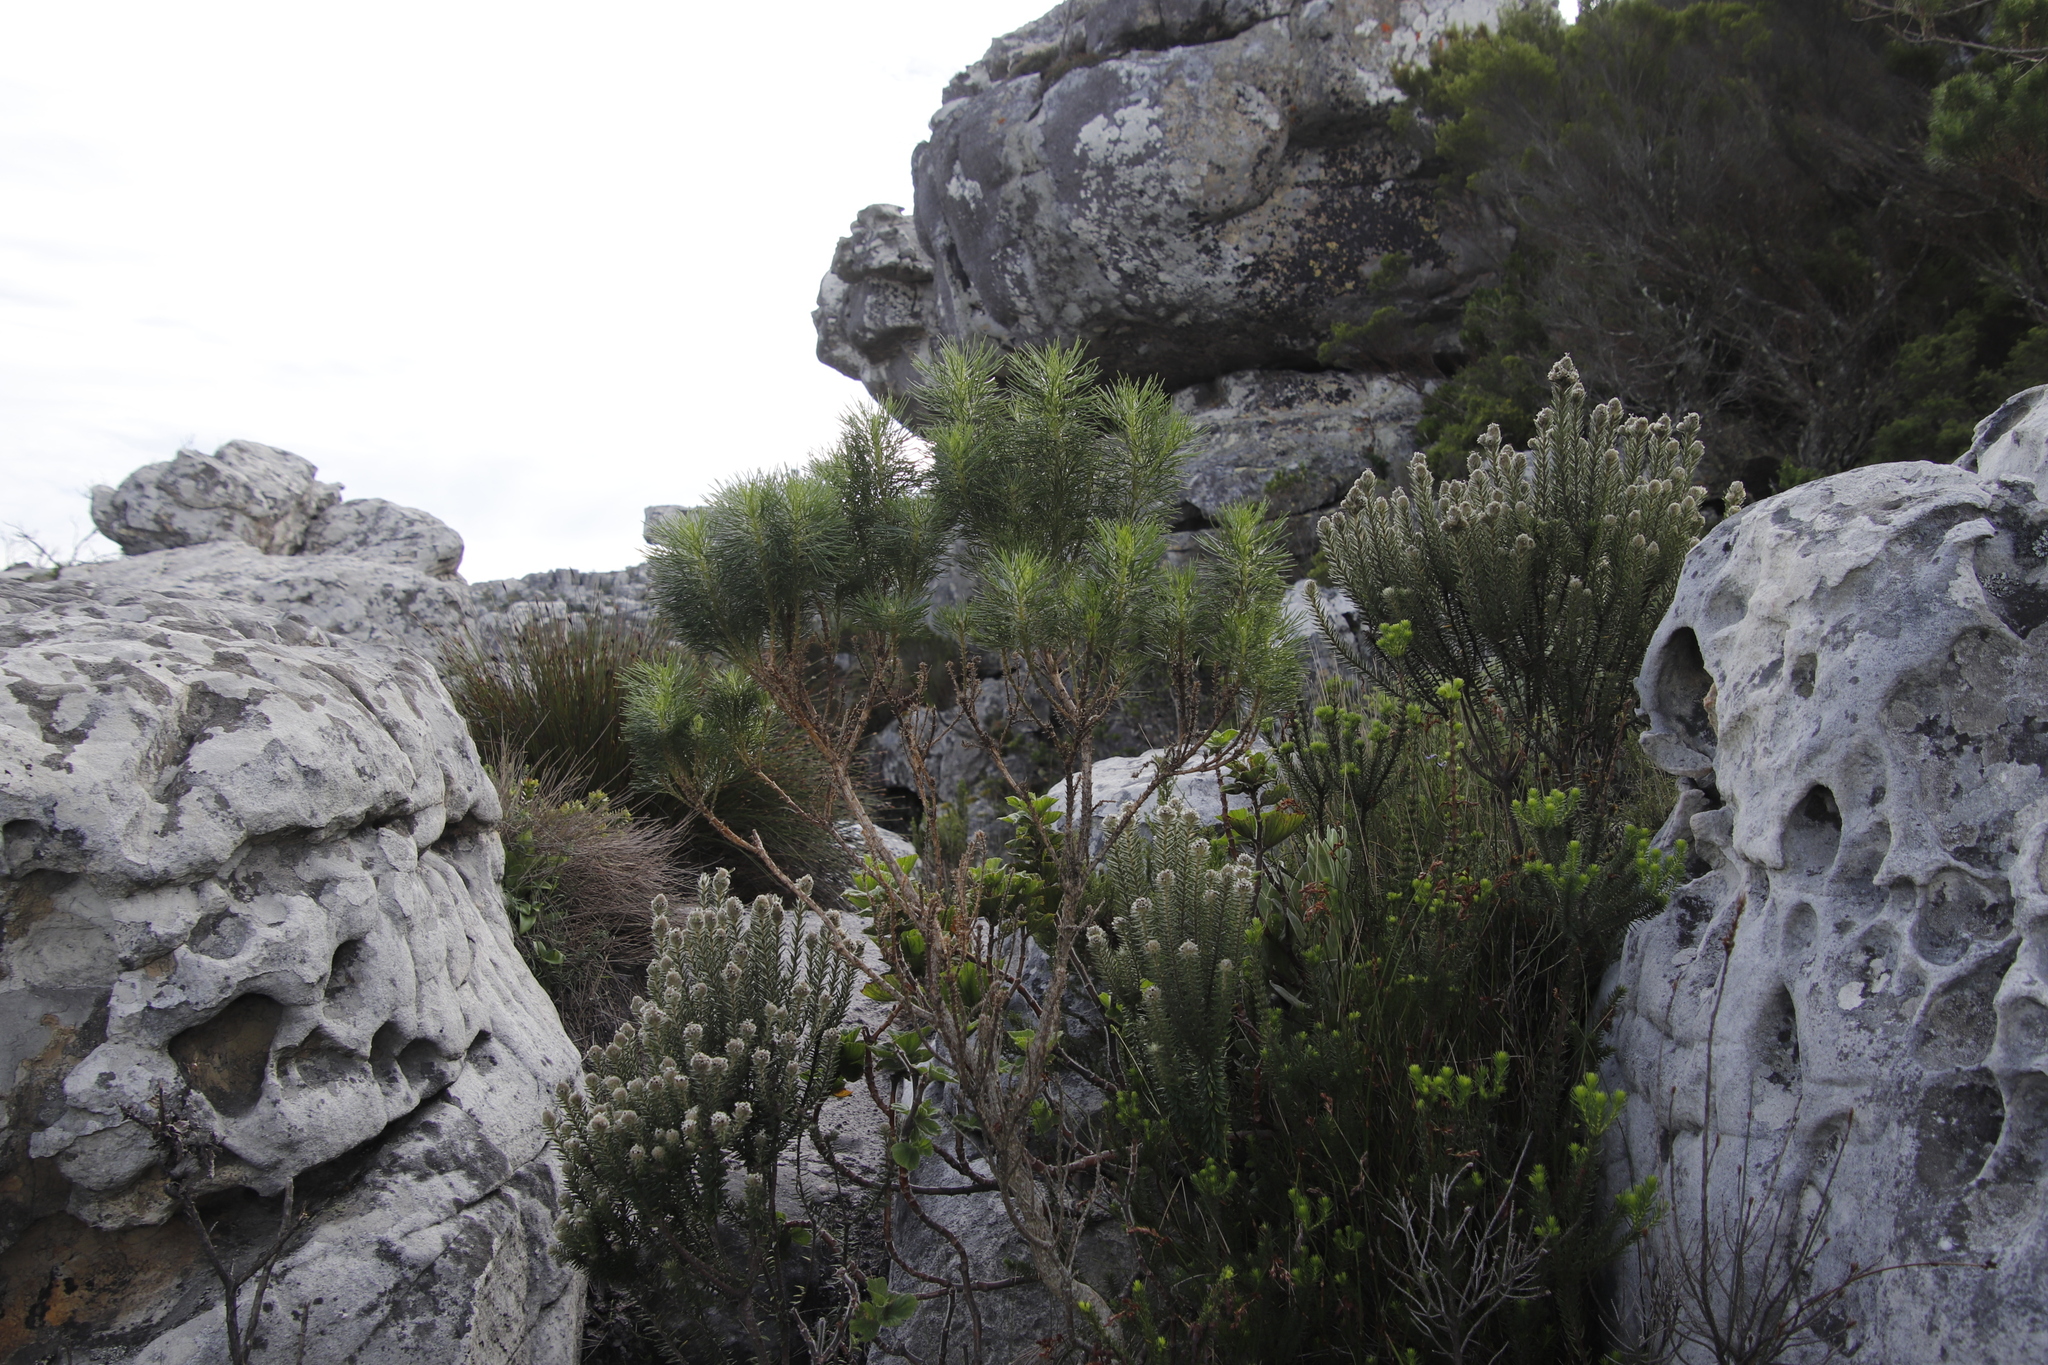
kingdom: Plantae
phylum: Tracheophyta
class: Magnoliopsida
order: Fabales
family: Fabaceae
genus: Psoralea
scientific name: Psoralea pinnata
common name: African scurfpea
